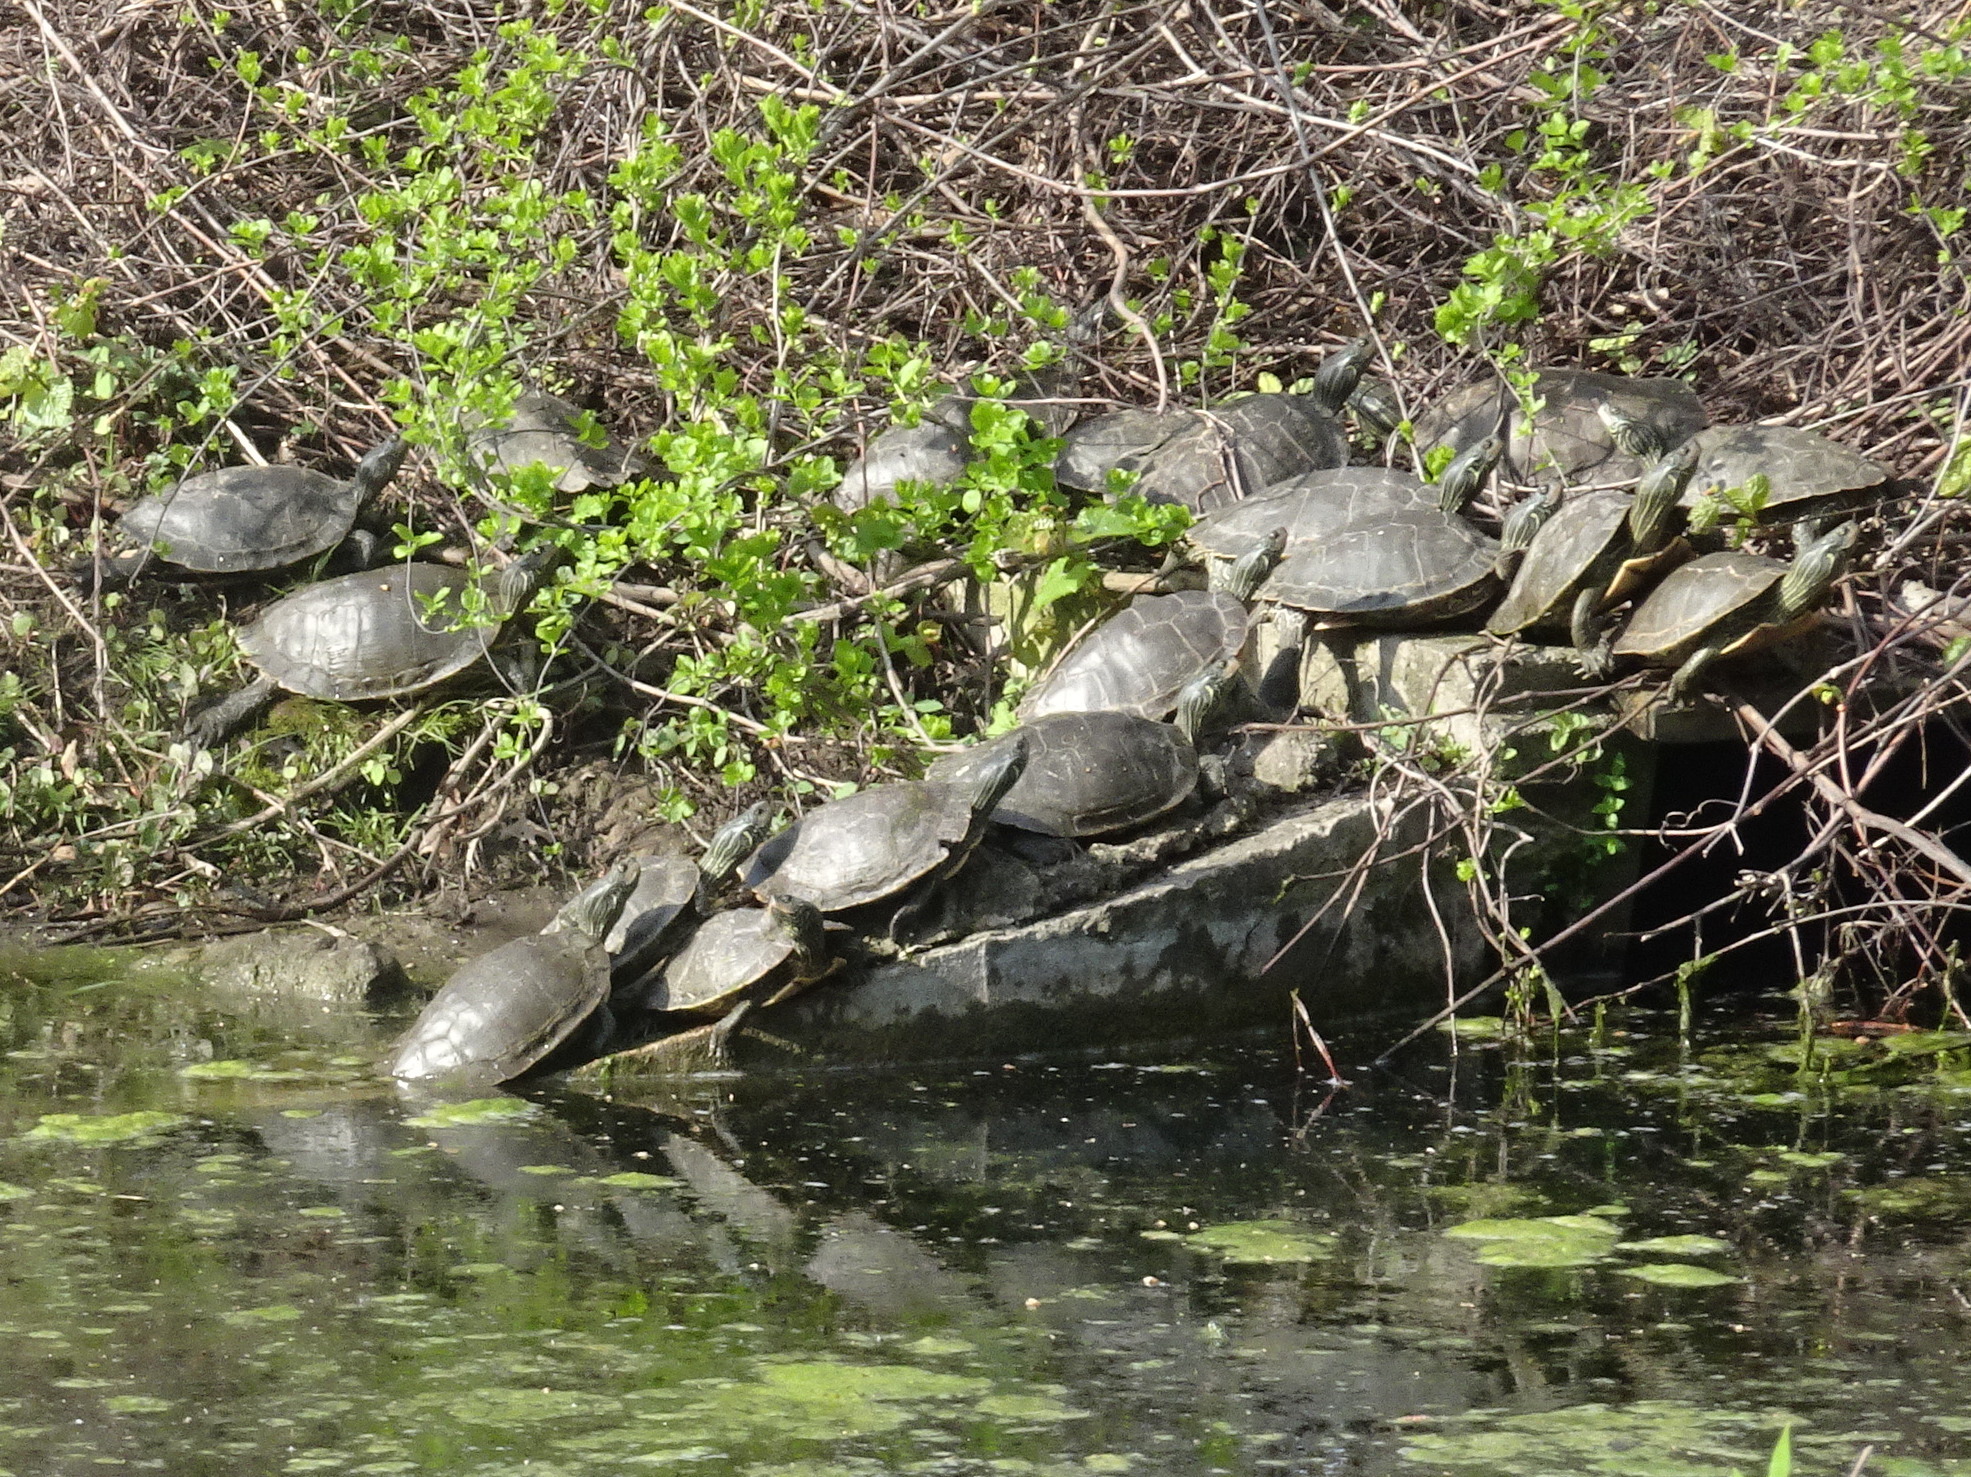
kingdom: Animalia
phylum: Chordata
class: Testudines
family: Emydidae
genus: Graptemys
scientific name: Graptemys geographica
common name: Common map turtle
